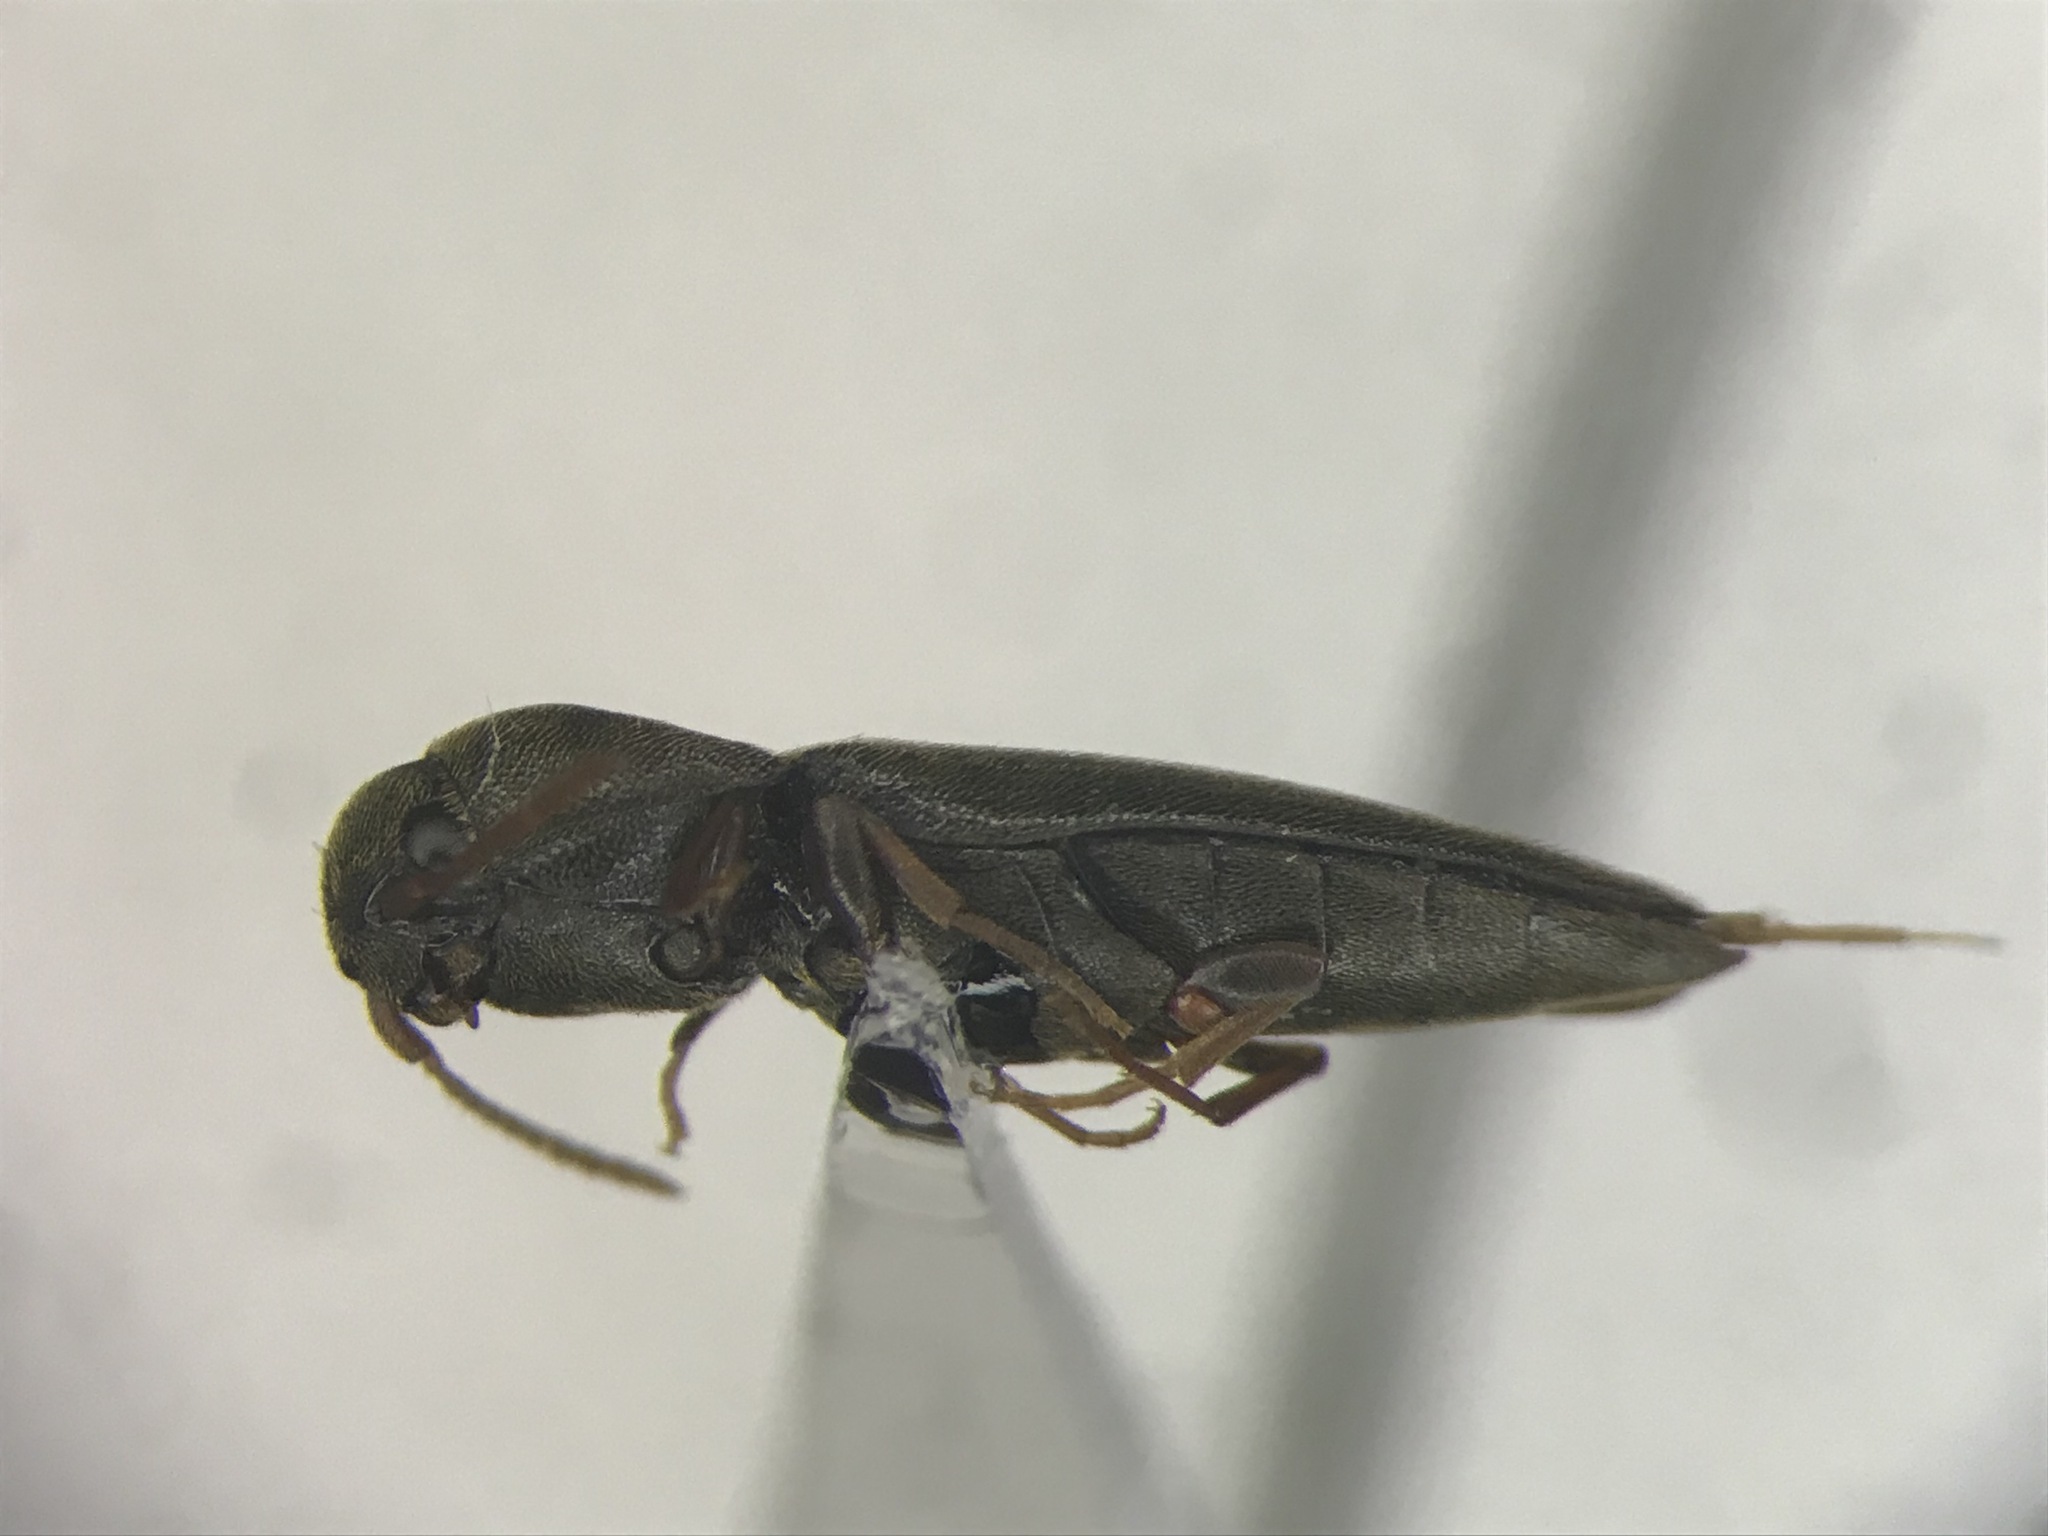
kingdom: Animalia
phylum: Arthropoda
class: Insecta
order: Coleoptera
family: Eucnemidae
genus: Nematodes
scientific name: Nematodes penetrans
